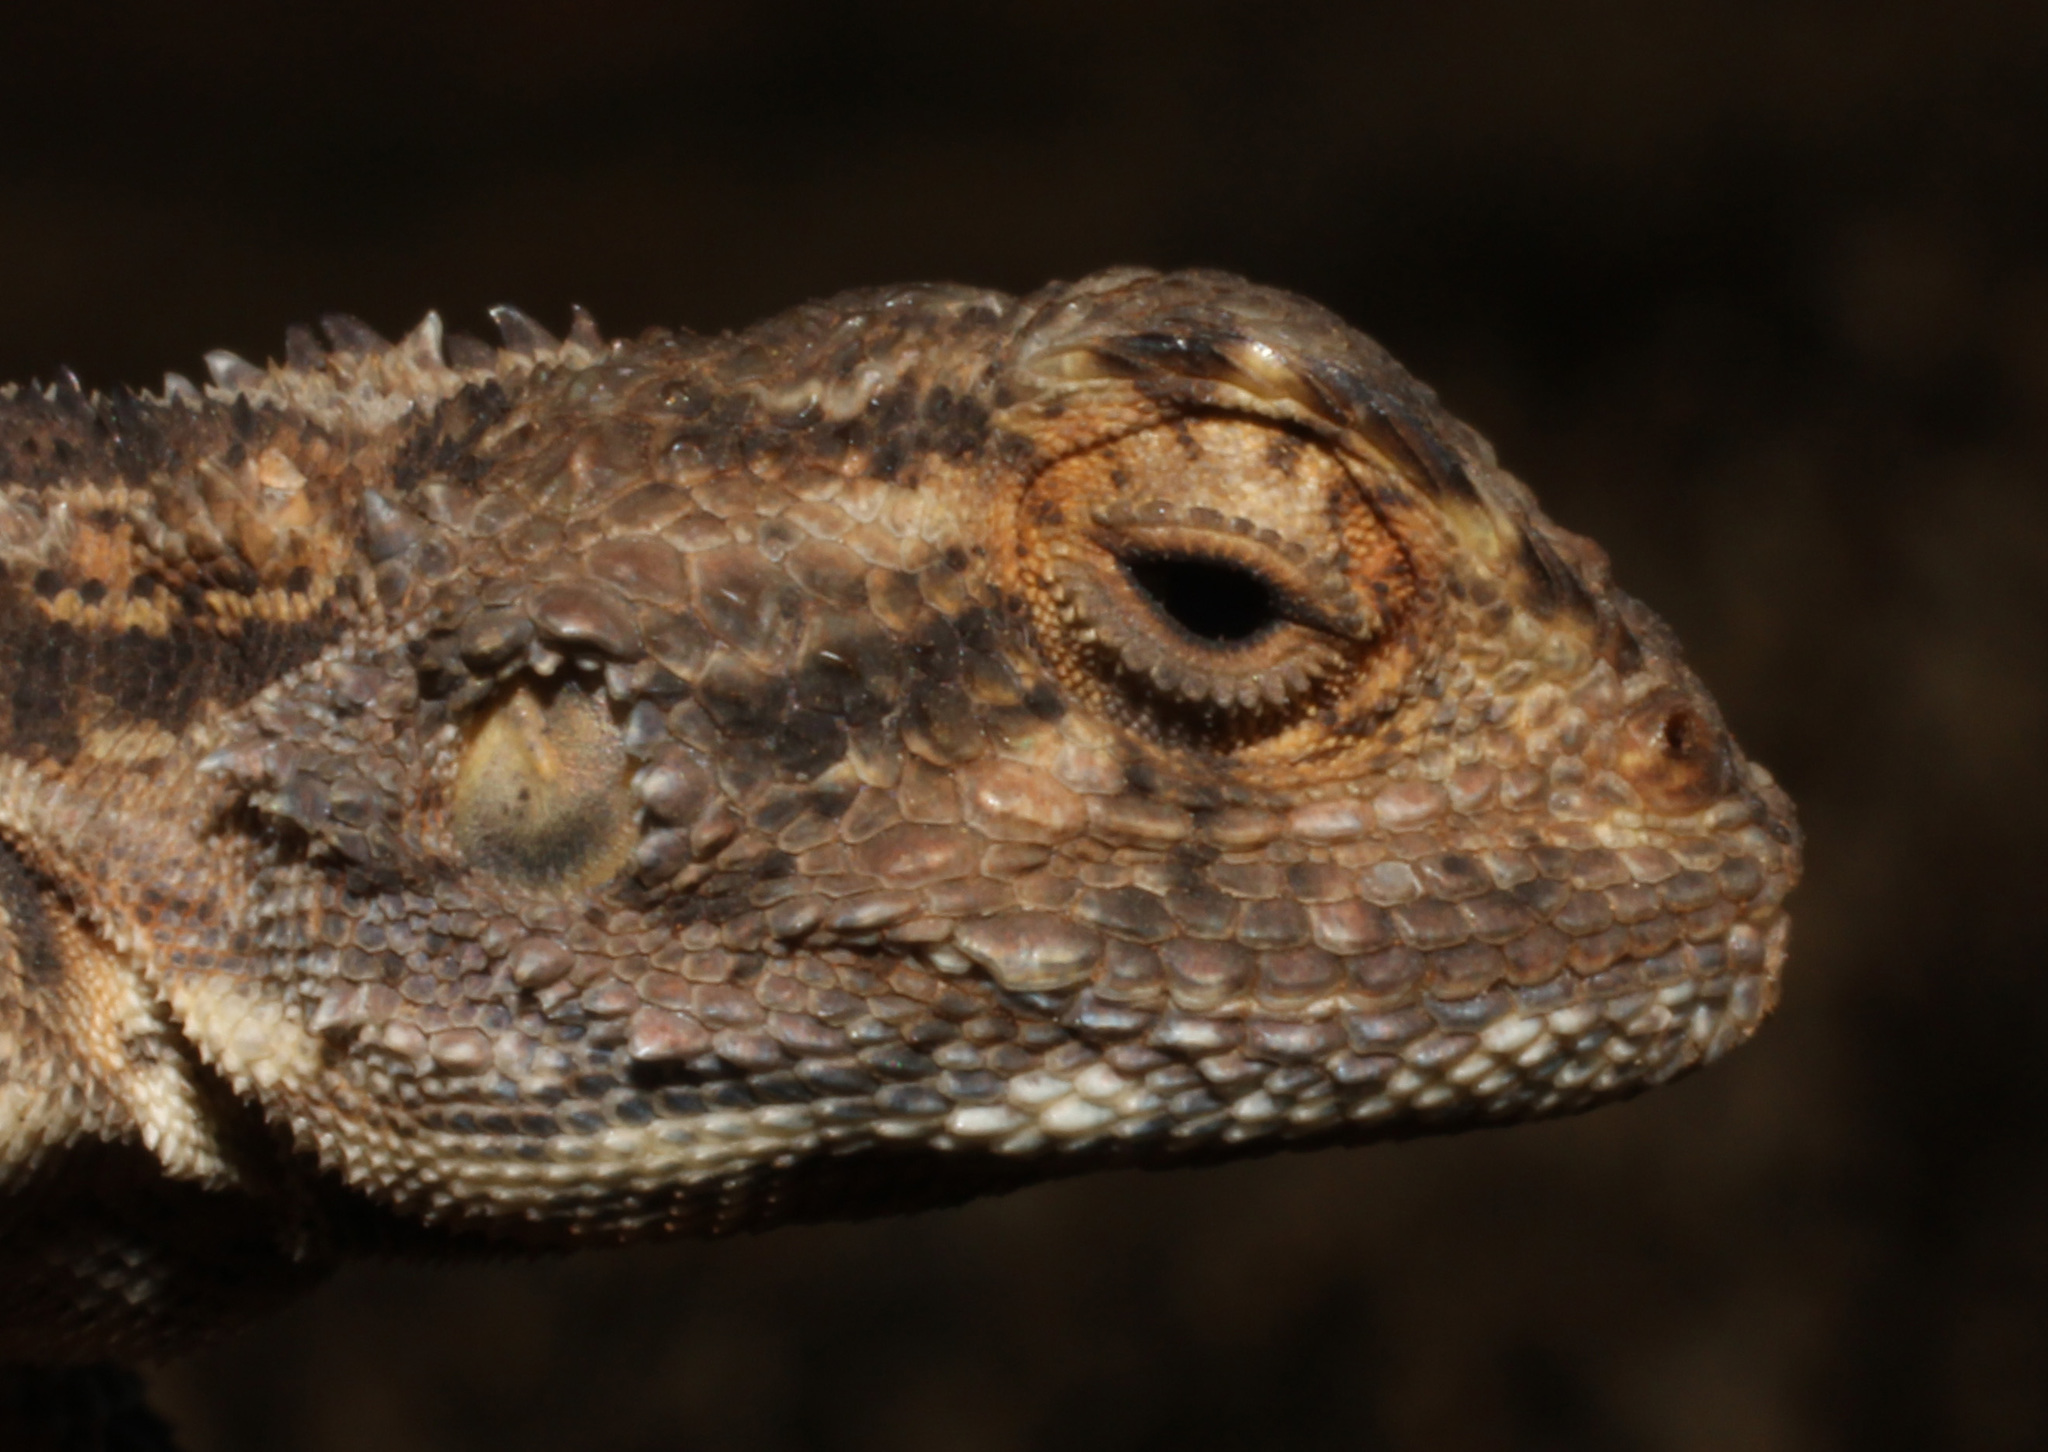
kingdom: Animalia
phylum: Chordata
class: Squamata
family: Agamidae
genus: Agama
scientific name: Agama aculeata
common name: Common ground agama
